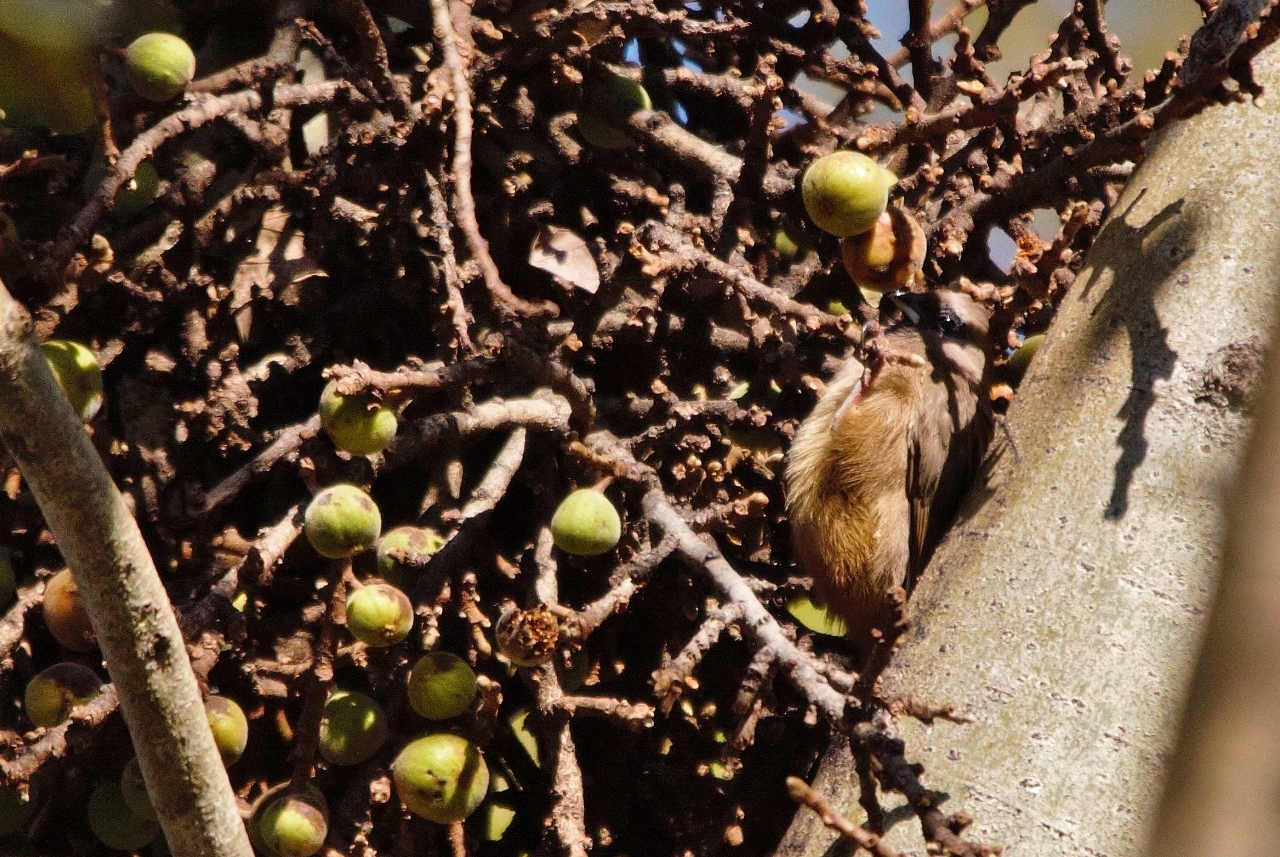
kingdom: Animalia
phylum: Chordata
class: Aves
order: Coliiformes
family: Coliidae
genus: Colius
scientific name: Colius striatus
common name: Speckled mousebird
